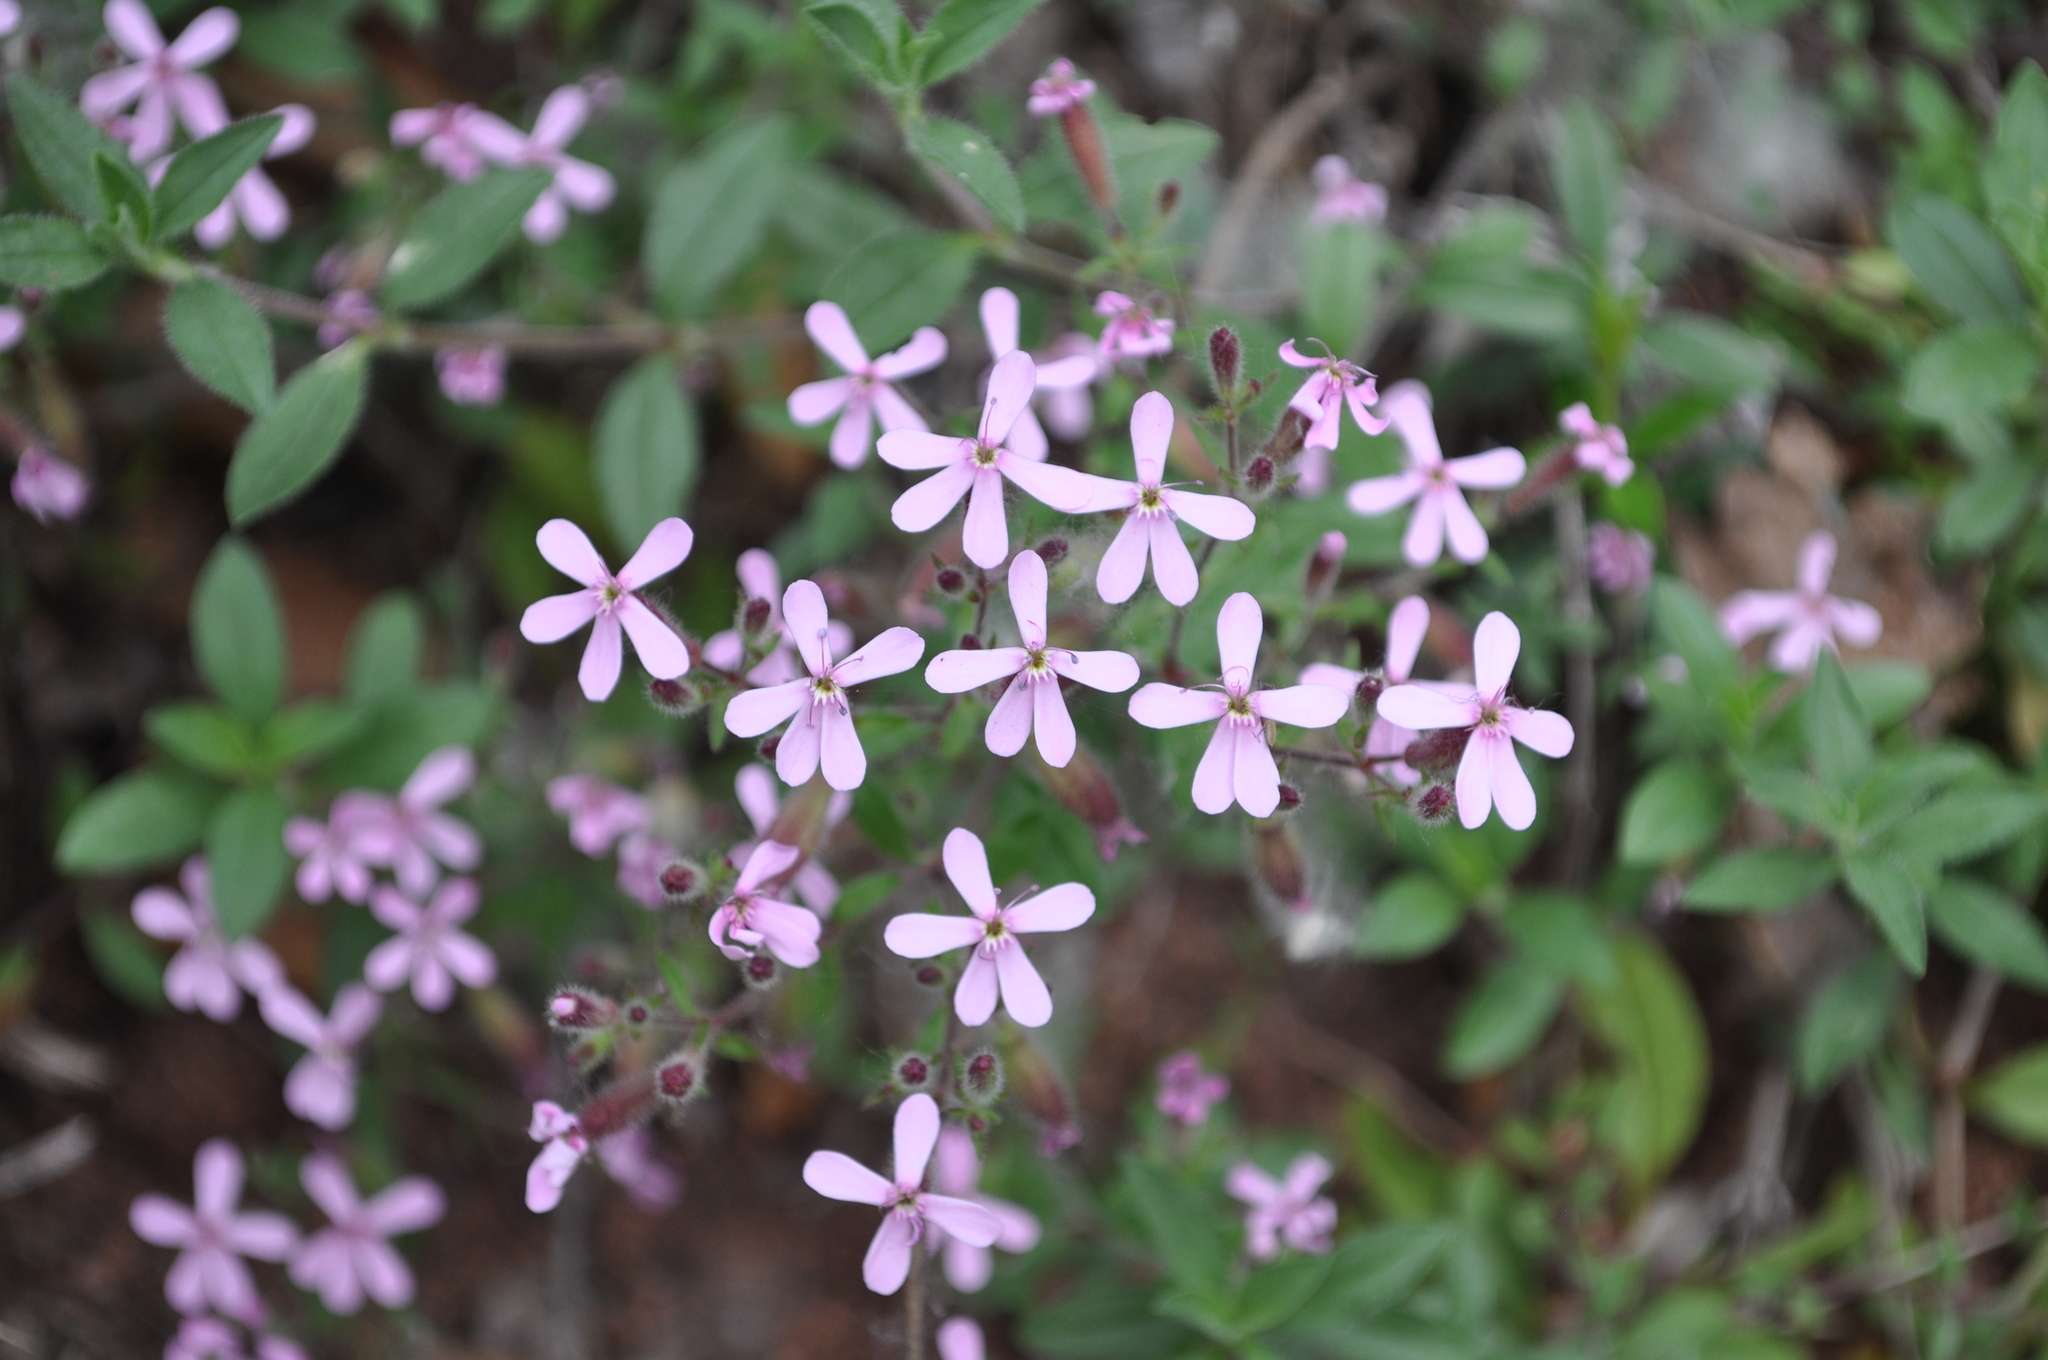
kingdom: Plantae
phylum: Tracheophyta
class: Magnoliopsida
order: Caryophyllales
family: Caryophyllaceae
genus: Saponaria
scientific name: Saponaria ocymoides
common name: Rock soapwort
